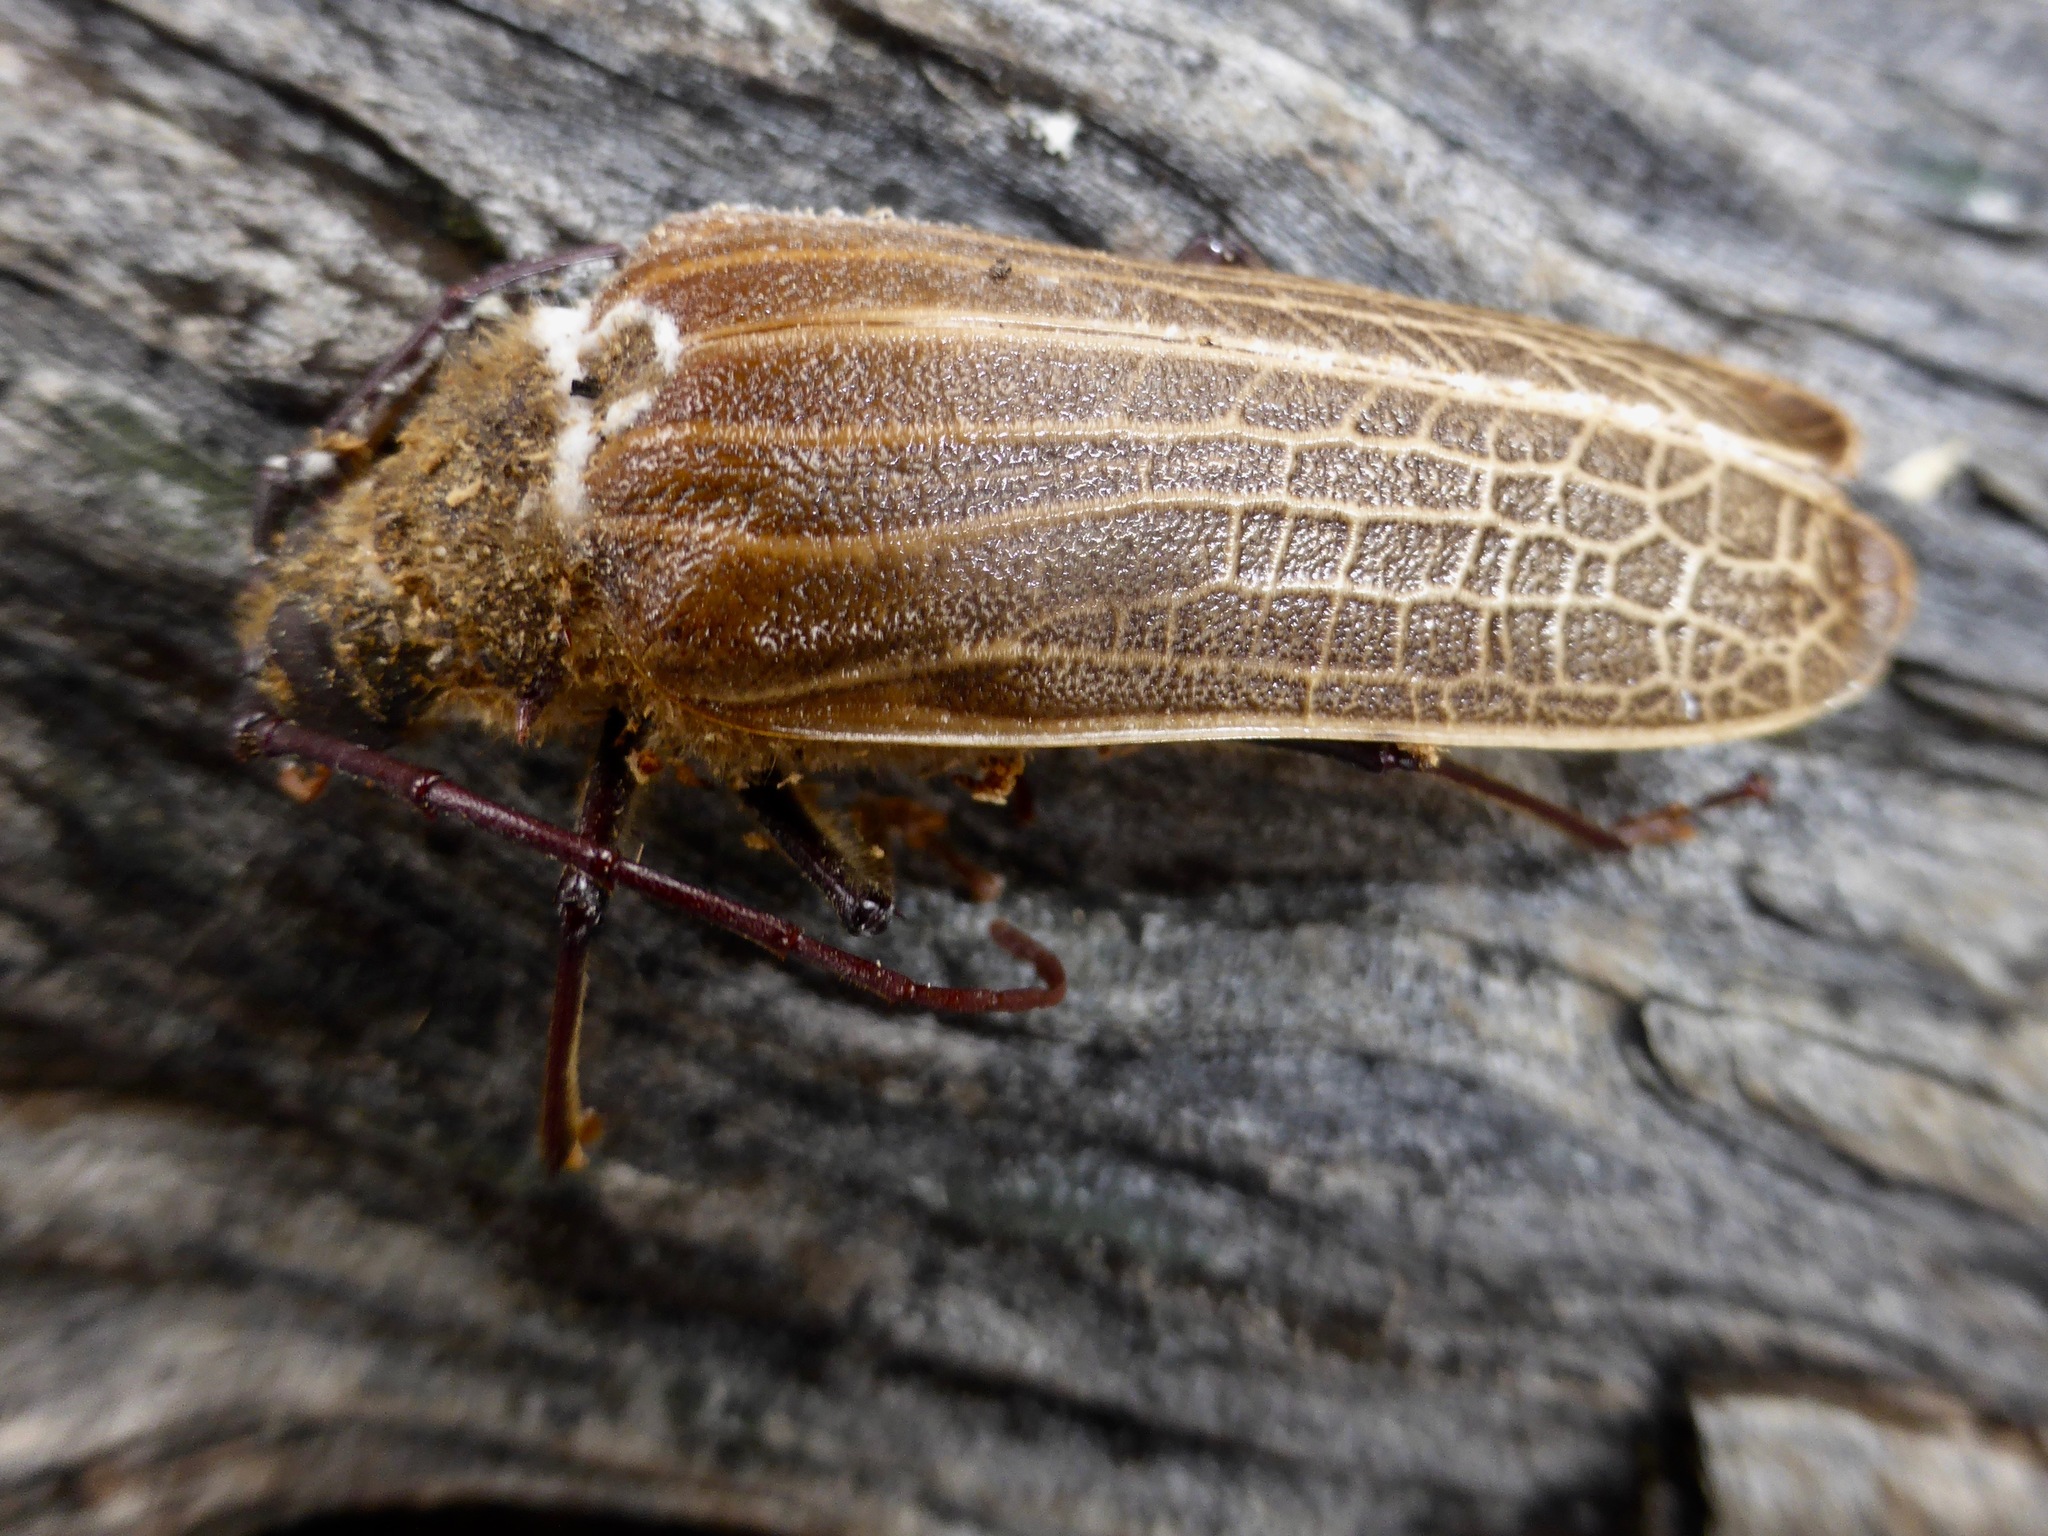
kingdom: Animalia
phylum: Arthropoda
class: Insecta
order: Coleoptera
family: Cerambycidae
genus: Prionoplus
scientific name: Prionoplus reticularis
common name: Huhu beetle
